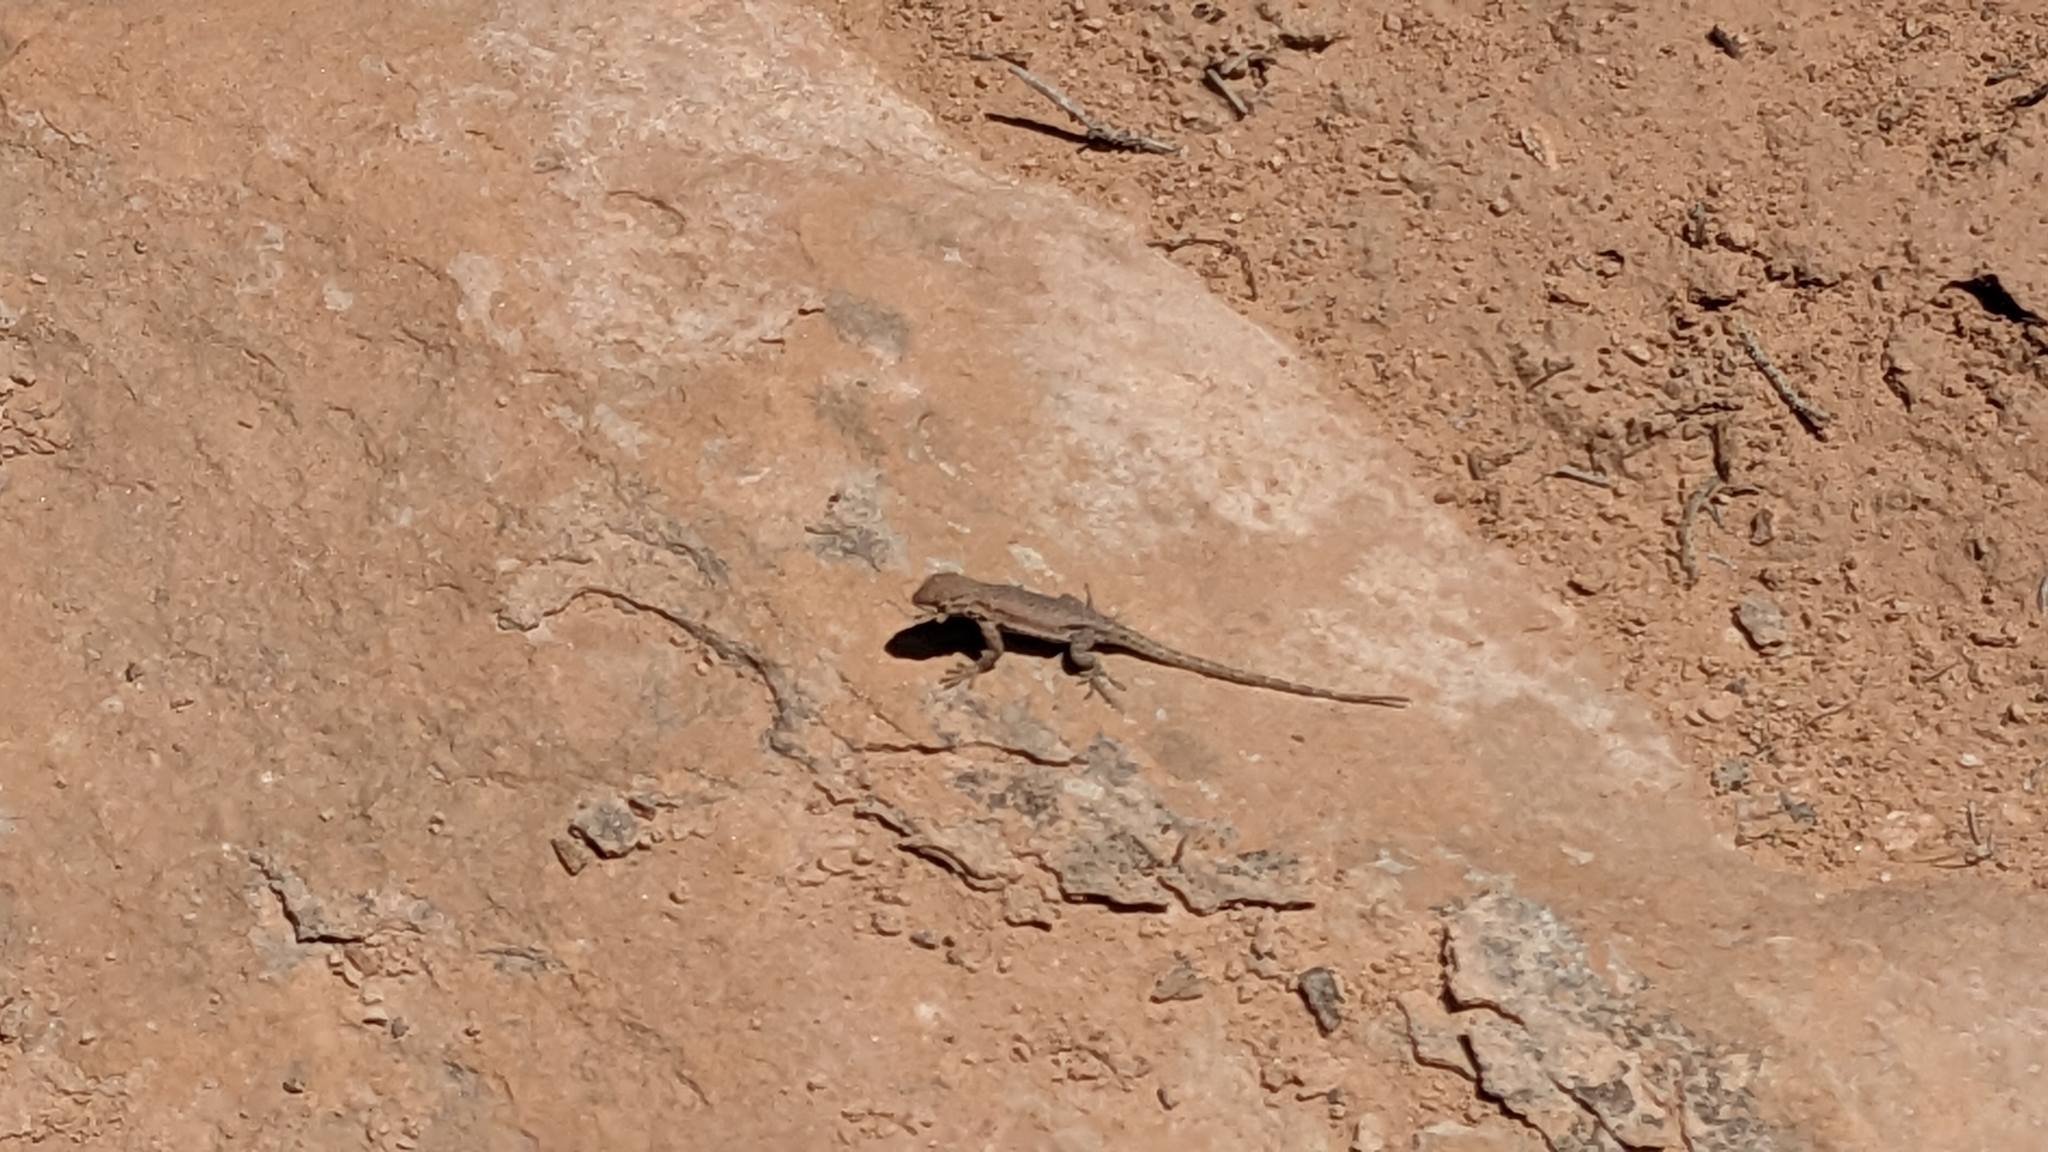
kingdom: Animalia
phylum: Chordata
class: Squamata
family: Phrynosomatidae
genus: Uta
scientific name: Uta stansburiana
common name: Side-blotched lizard
